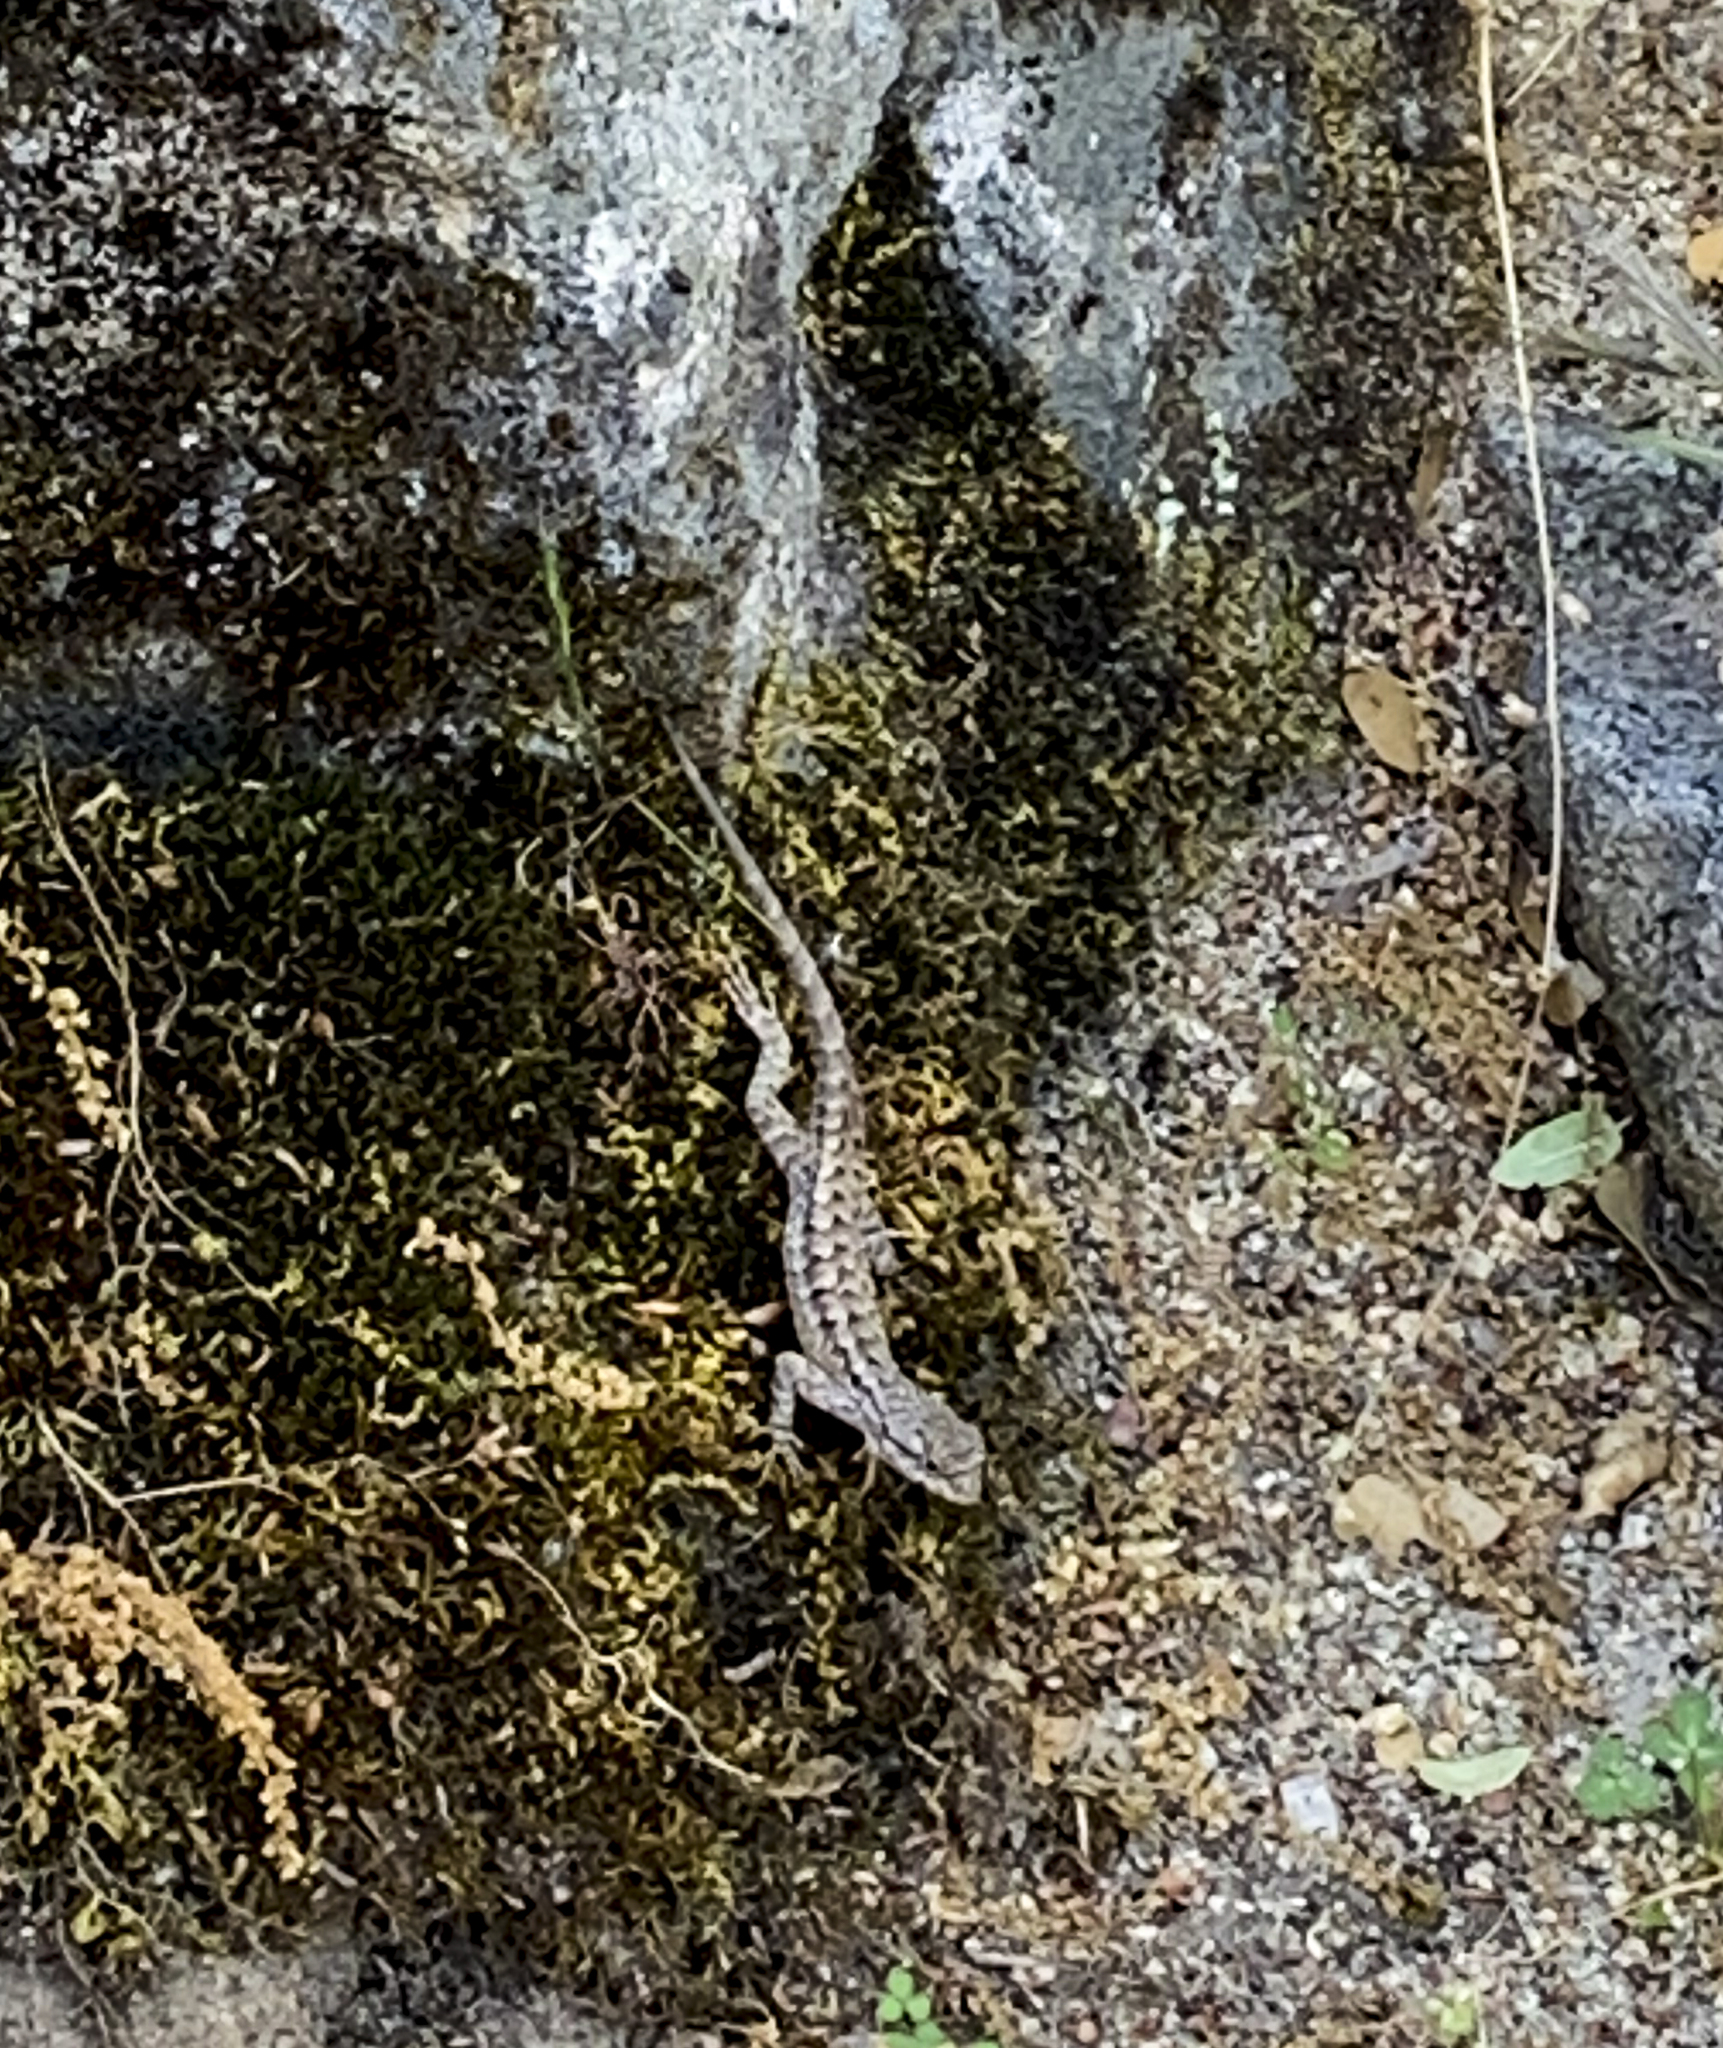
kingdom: Animalia
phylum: Chordata
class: Squamata
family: Phrynosomatidae
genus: Sceloporus
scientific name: Sceloporus occidentalis
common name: Western fence lizard
